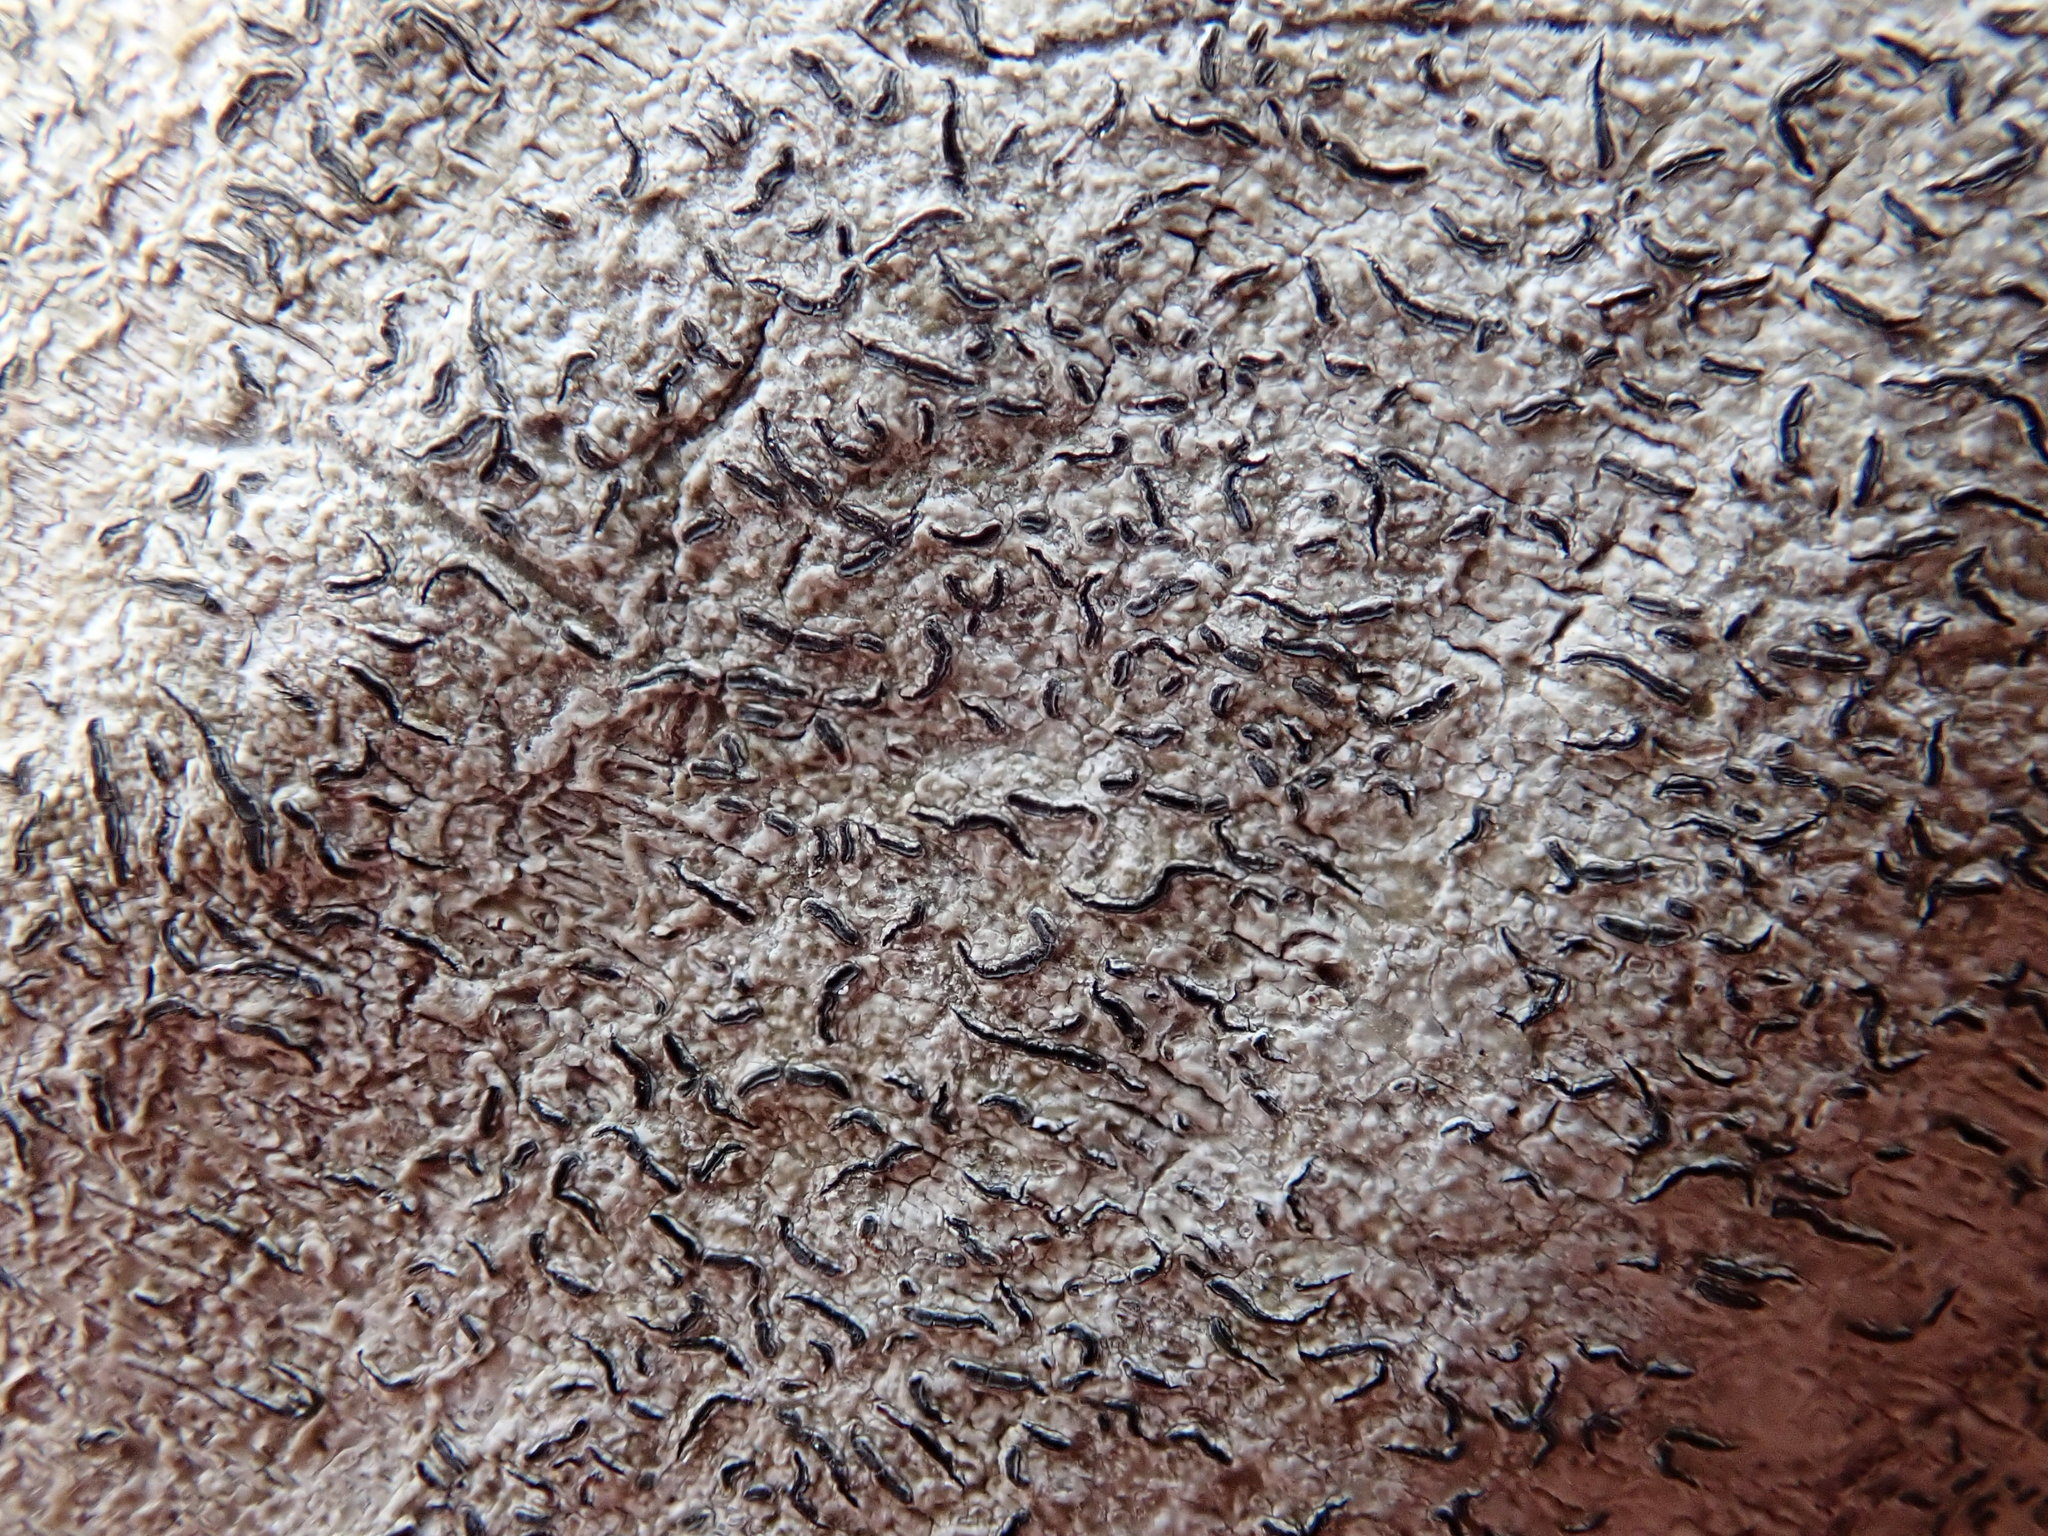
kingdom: Fungi
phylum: Ascomycota
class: Lecanoromycetes
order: Ostropales
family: Graphidaceae
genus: Graphis
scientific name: Graphis scripta
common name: Script lichen
